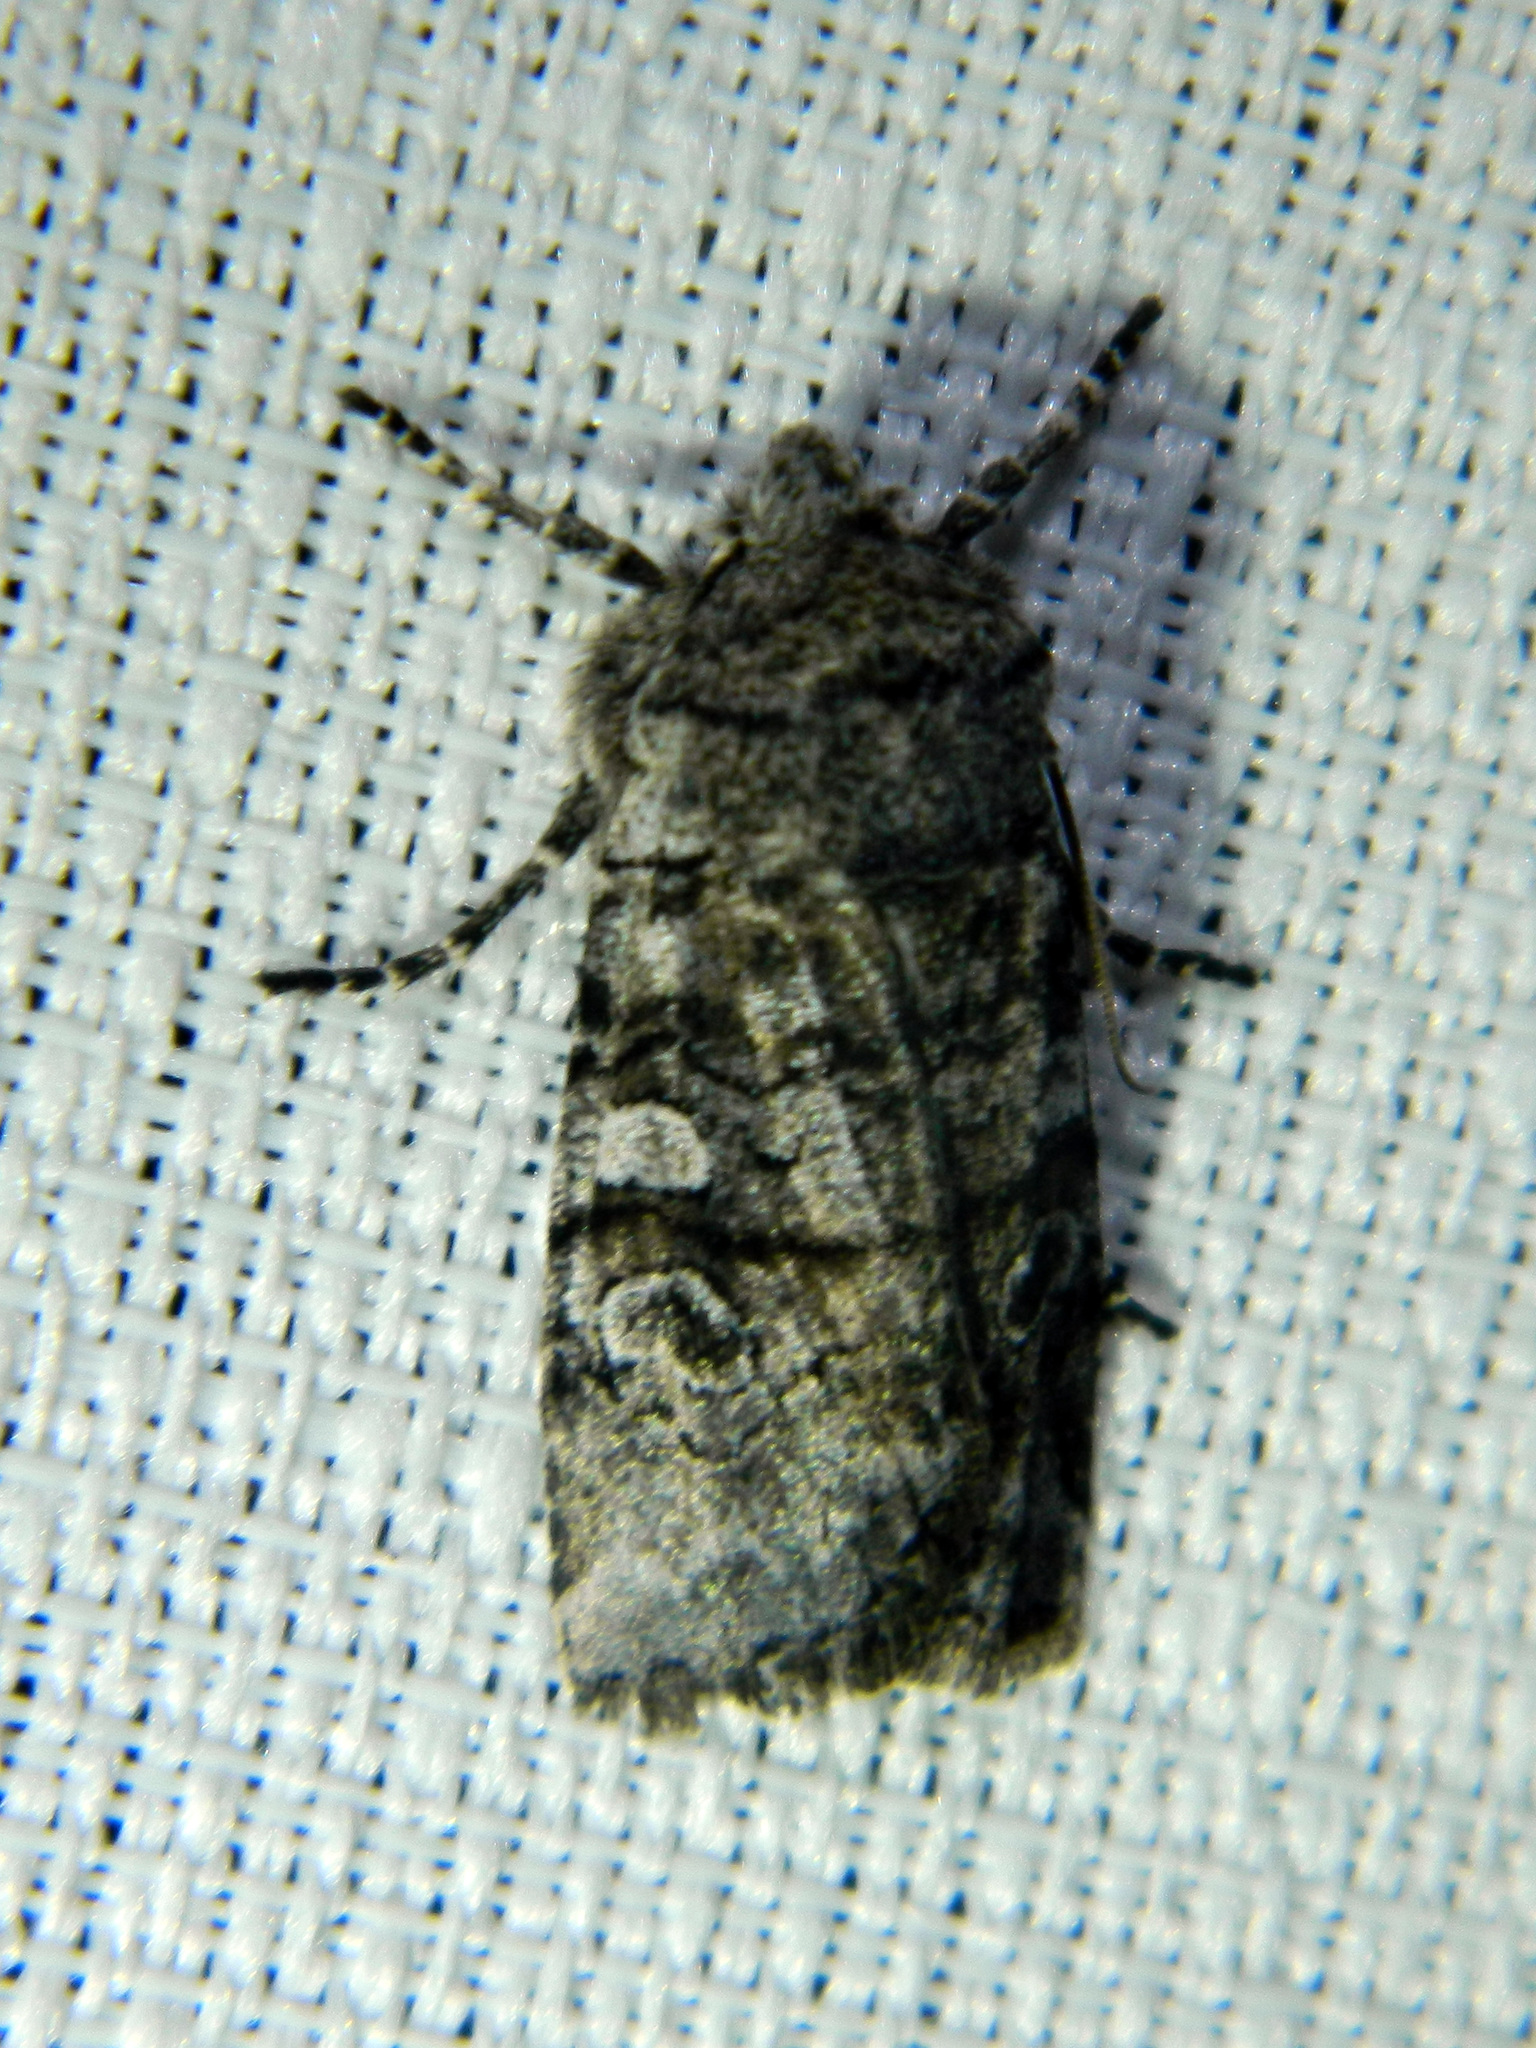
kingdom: Animalia
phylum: Arthropoda
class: Insecta
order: Lepidoptera
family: Noctuidae
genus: Litholomia
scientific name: Litholomia napaea
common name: False pinion moth
